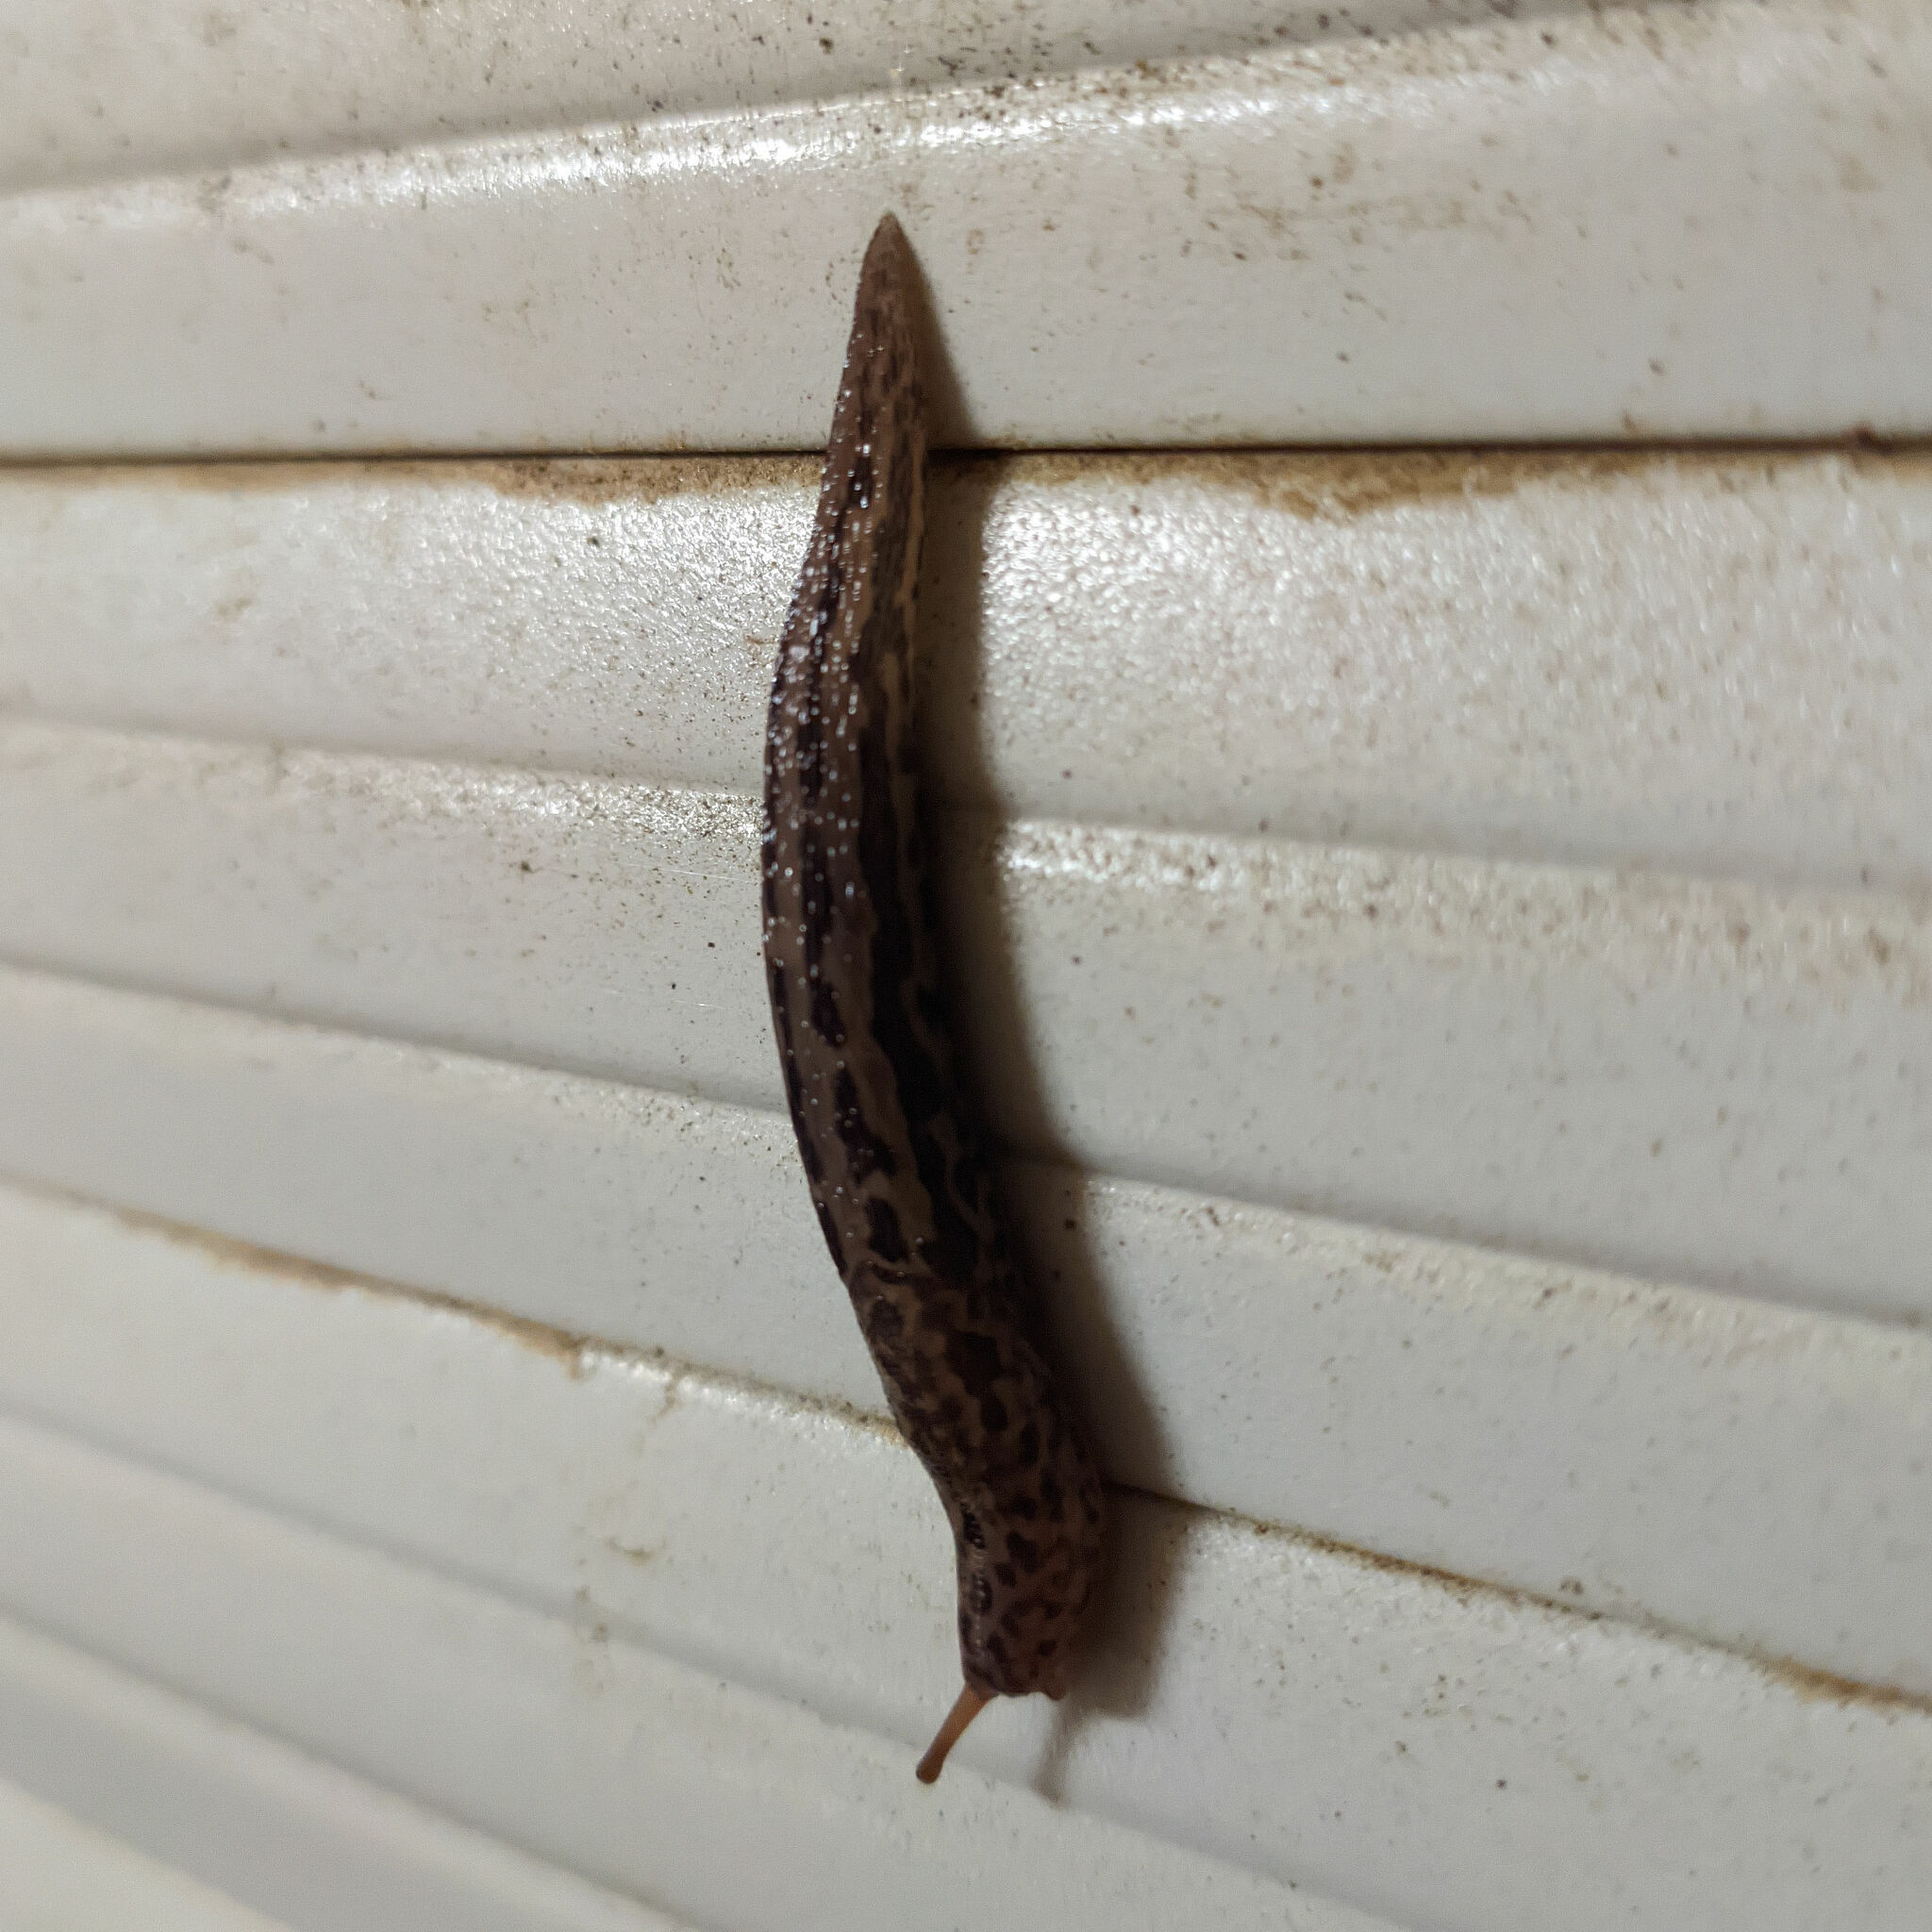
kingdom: Animalia
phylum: Mollusca
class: Gastropoda
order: Stylommatophora
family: Limacidae
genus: Limax
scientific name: Limax maximus
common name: Great grey slug
